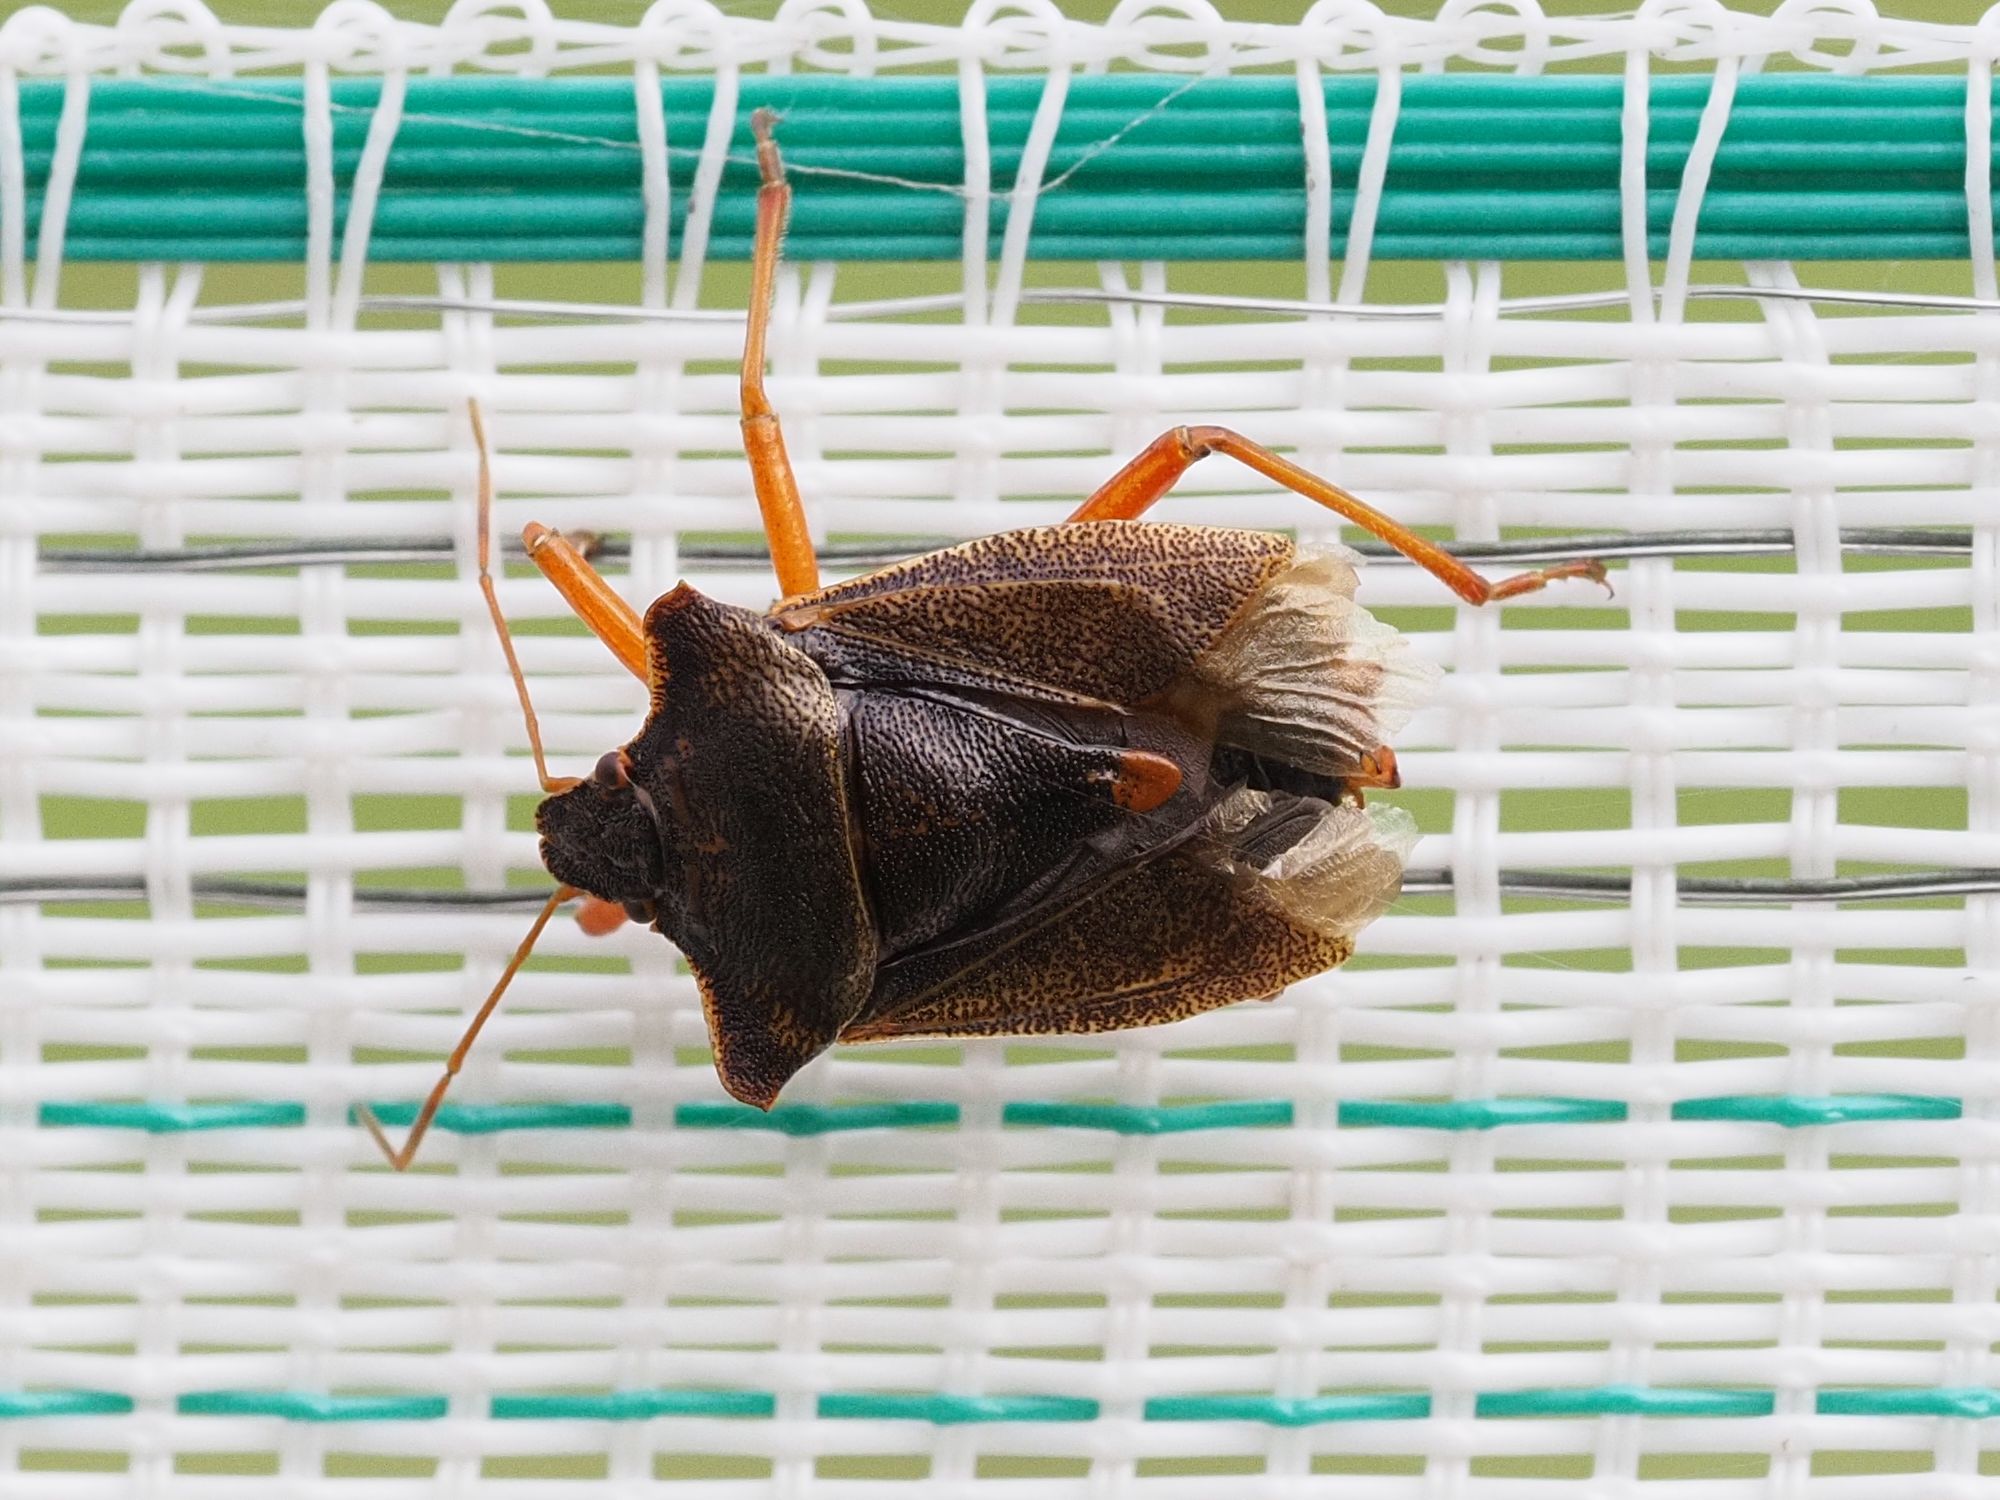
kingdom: Animalia
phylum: Arthropoda
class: Insecta
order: Hemiptera
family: Pentatomidae
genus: Pentatoma
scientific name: Pentatoma rufipes
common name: Forest bug
